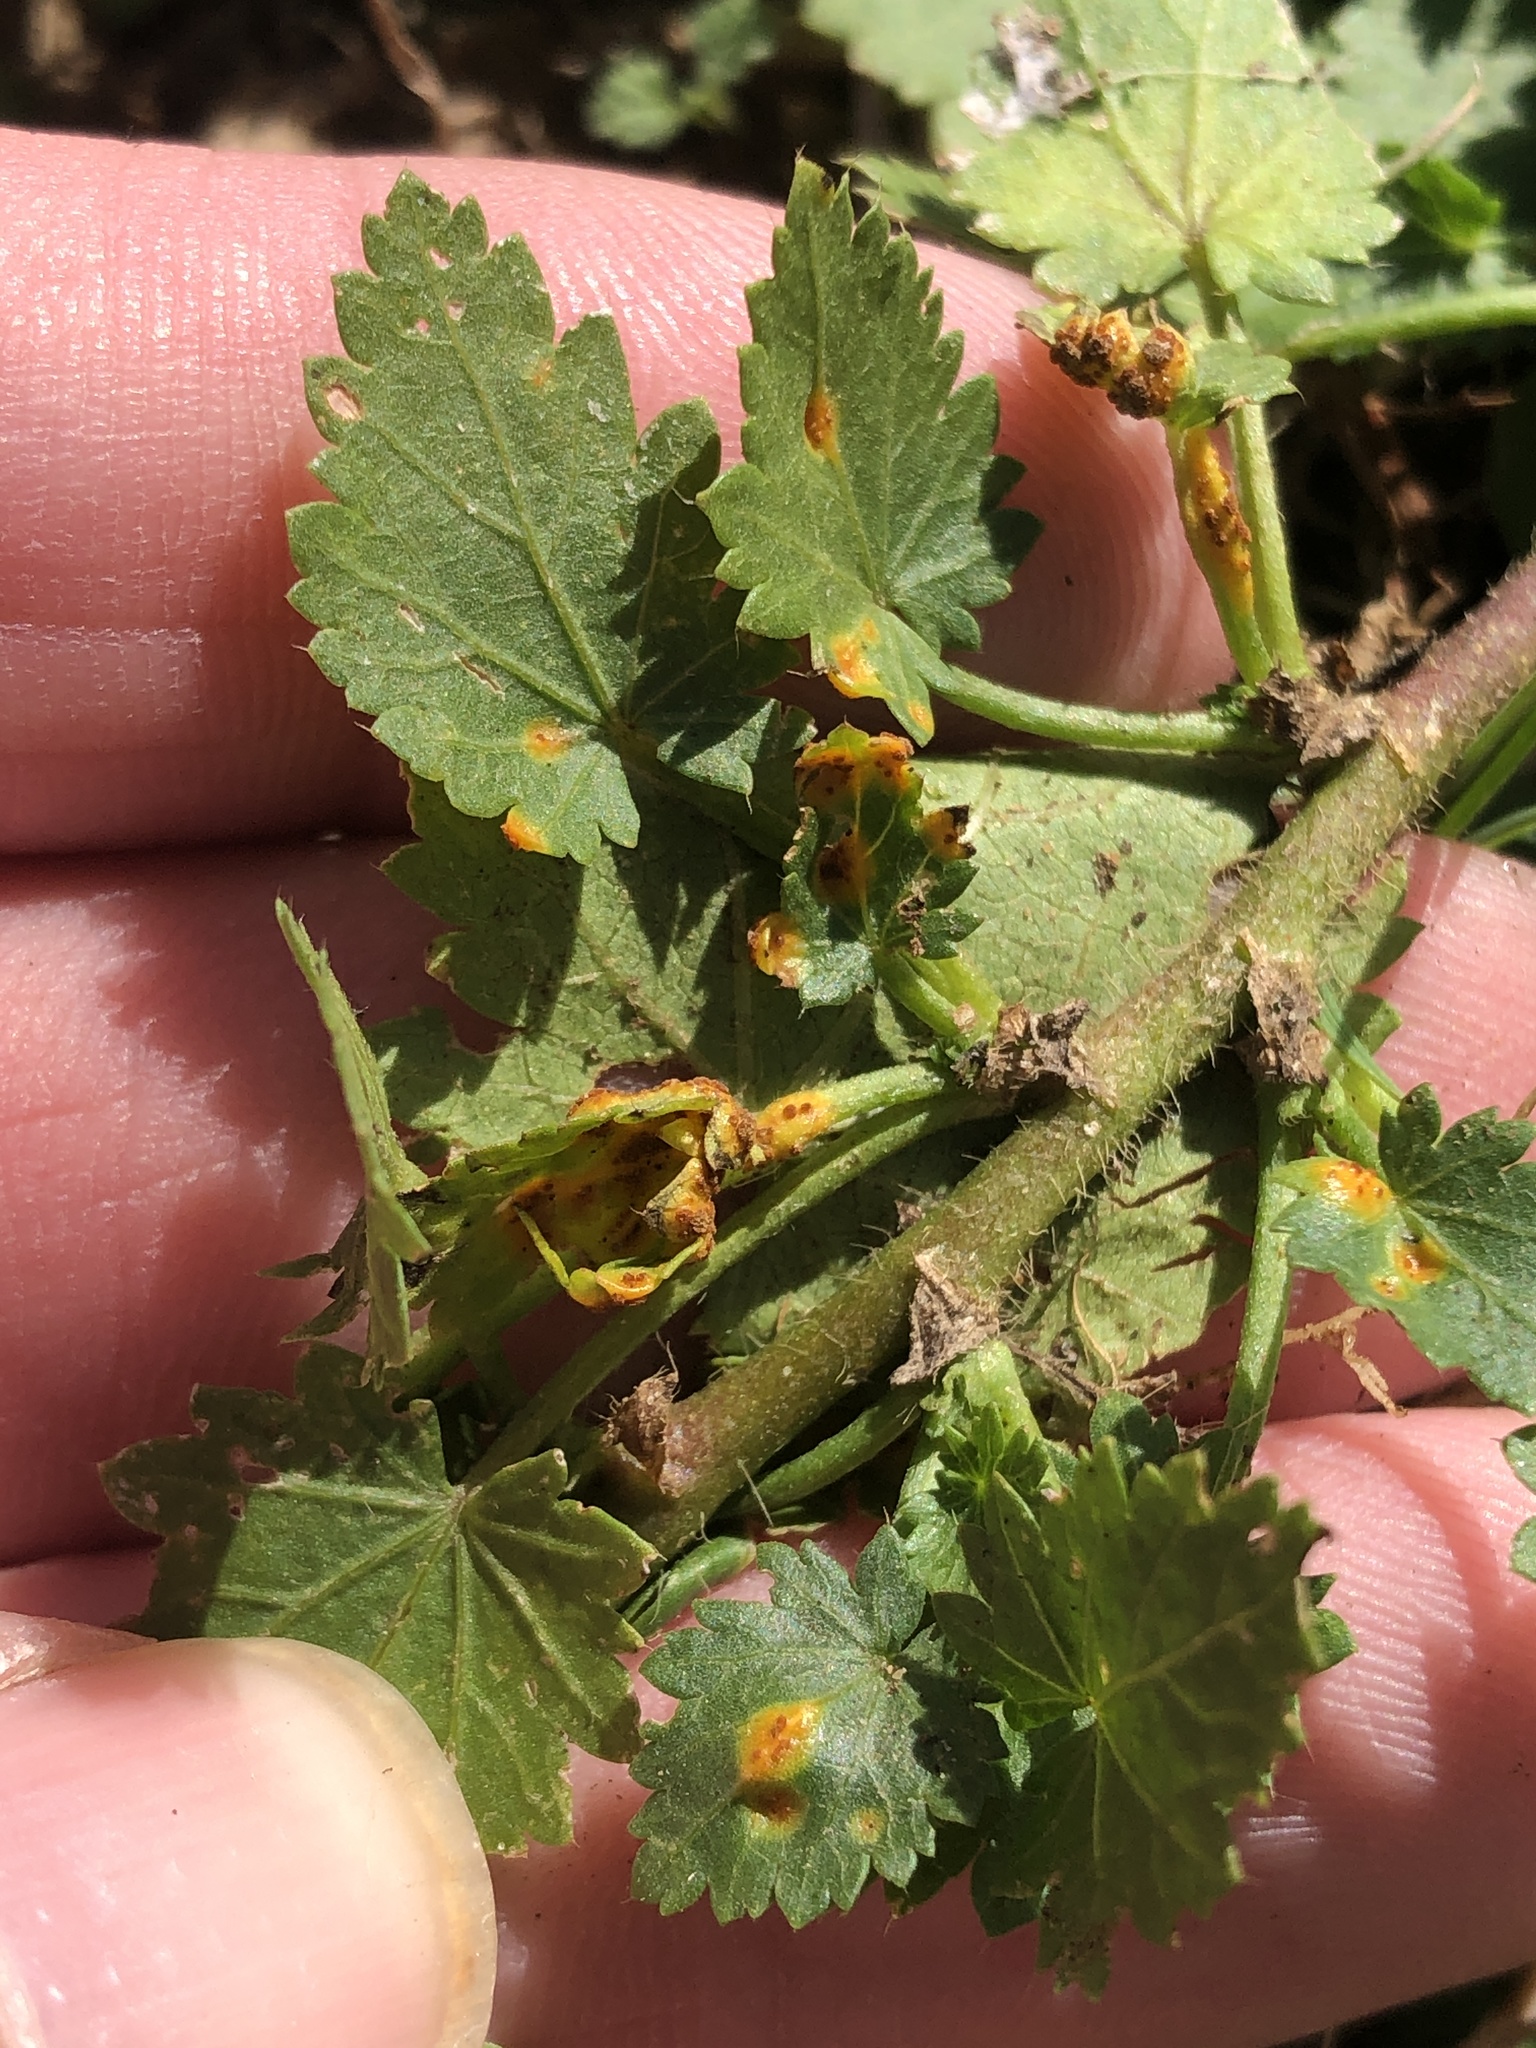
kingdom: Fungi
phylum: Basidiomycota
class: Pucciniomycetes
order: Pucciniales
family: Pucciniaceae
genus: Puccinia
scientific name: Puccinia modiolae
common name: Rust of bristlemallow
